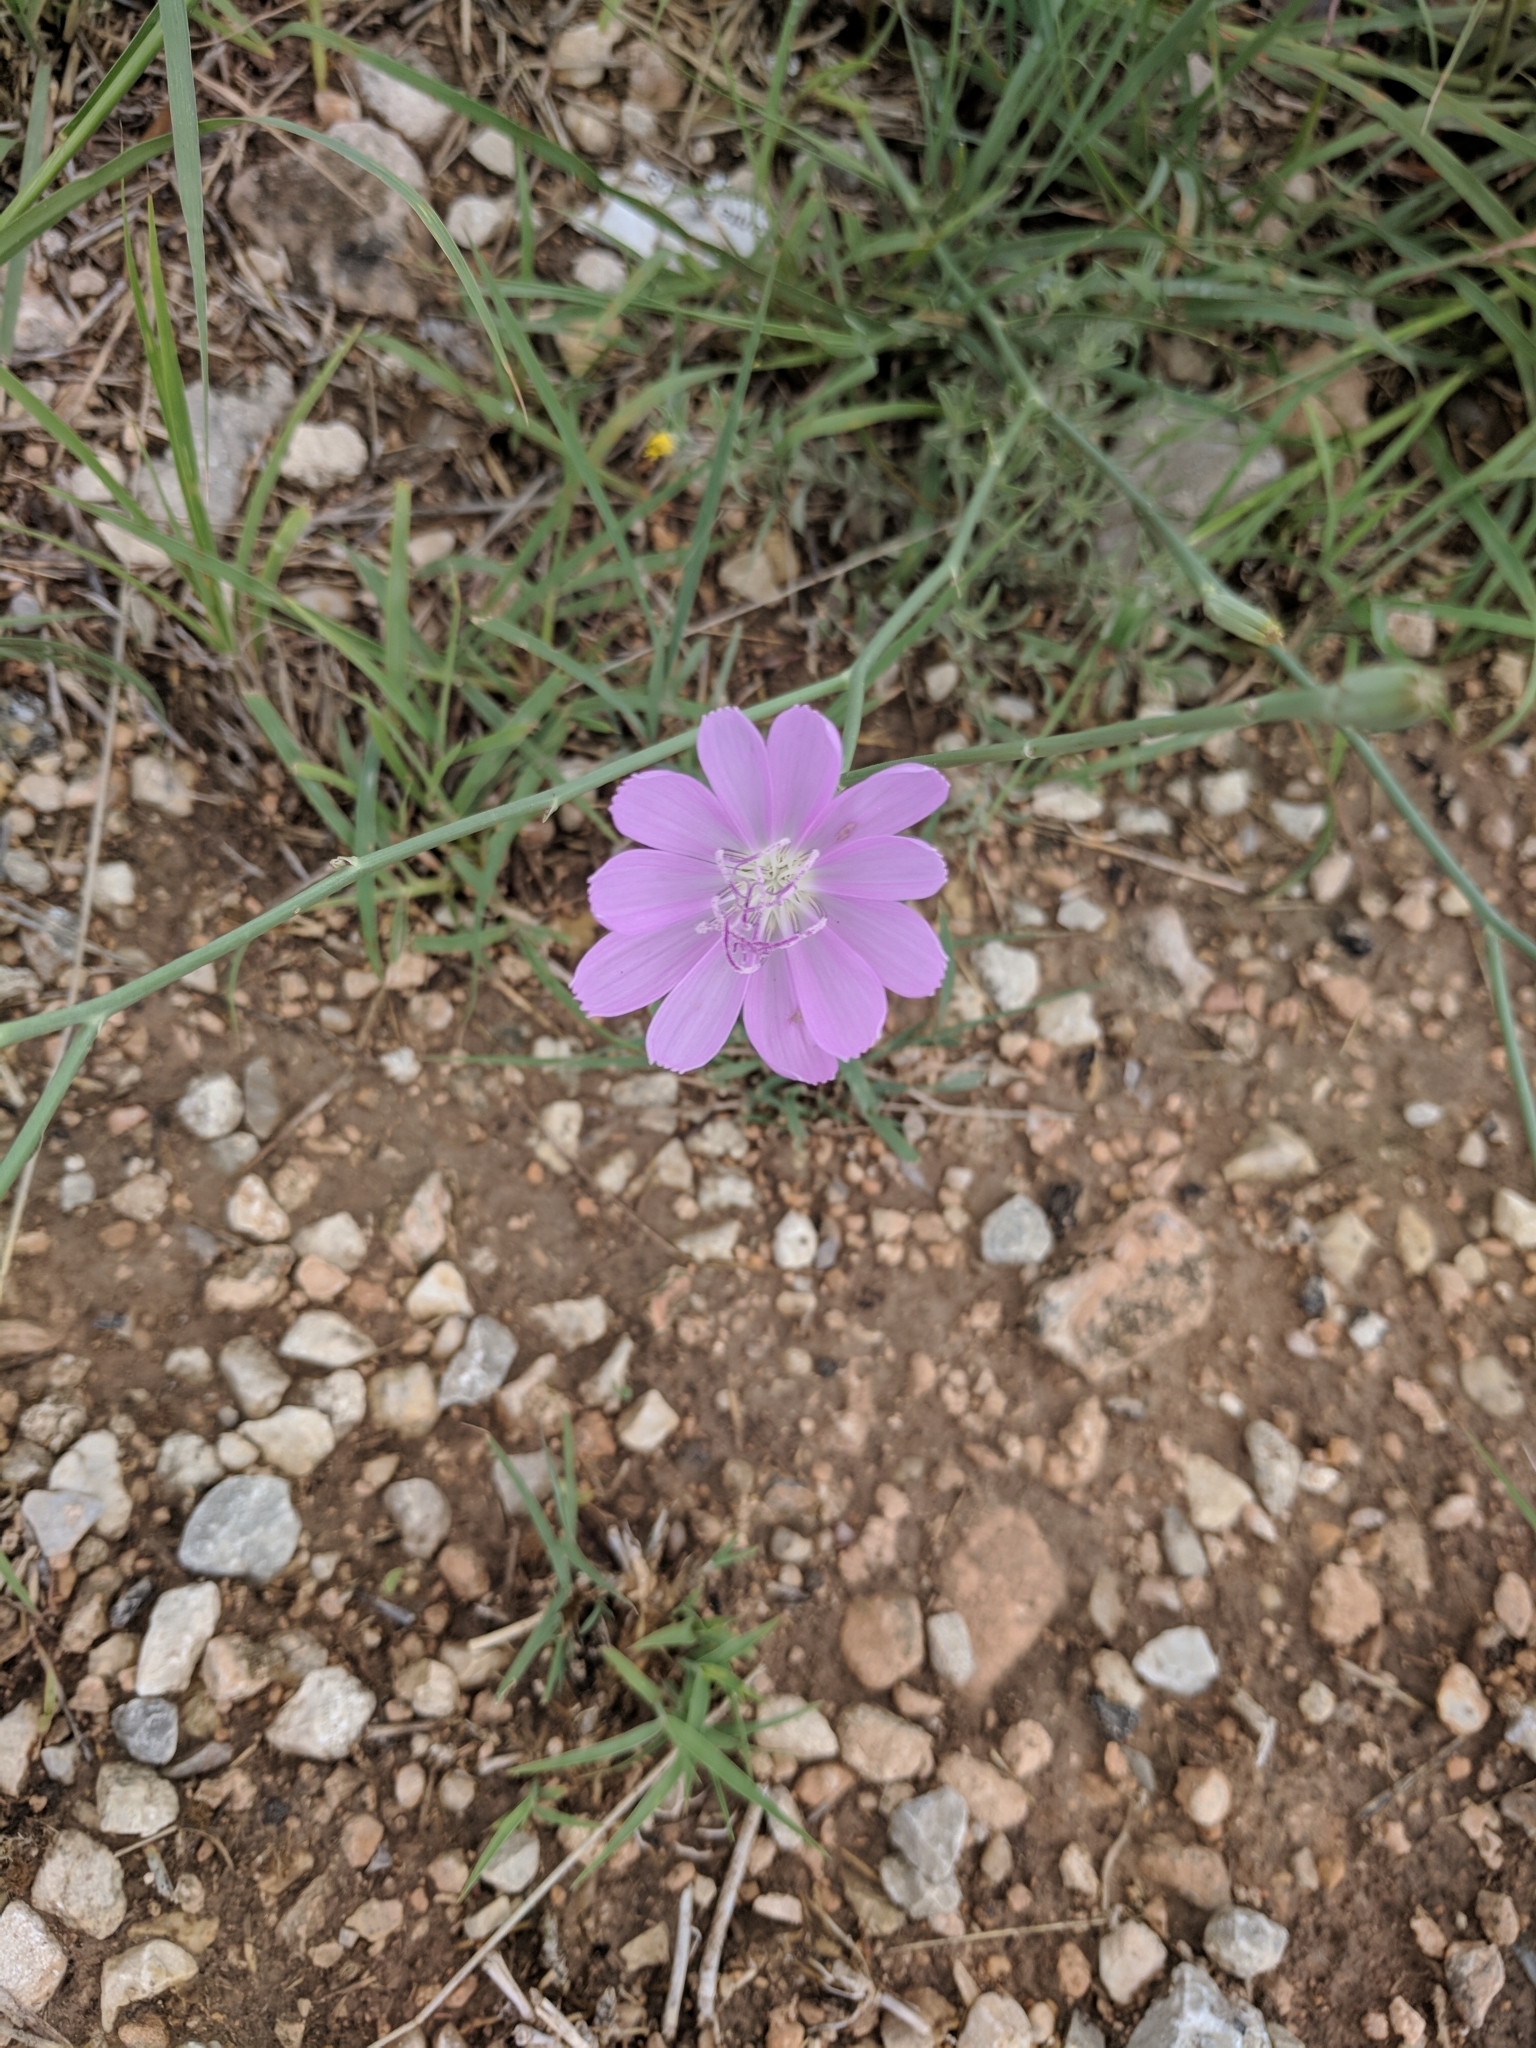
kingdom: Plantae
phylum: Tracheophyta
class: Magnoliopsida
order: Asterales
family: Asteraceae
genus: Lygodesmia
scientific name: Lygodesmia texana
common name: Texas skeleton-plant
